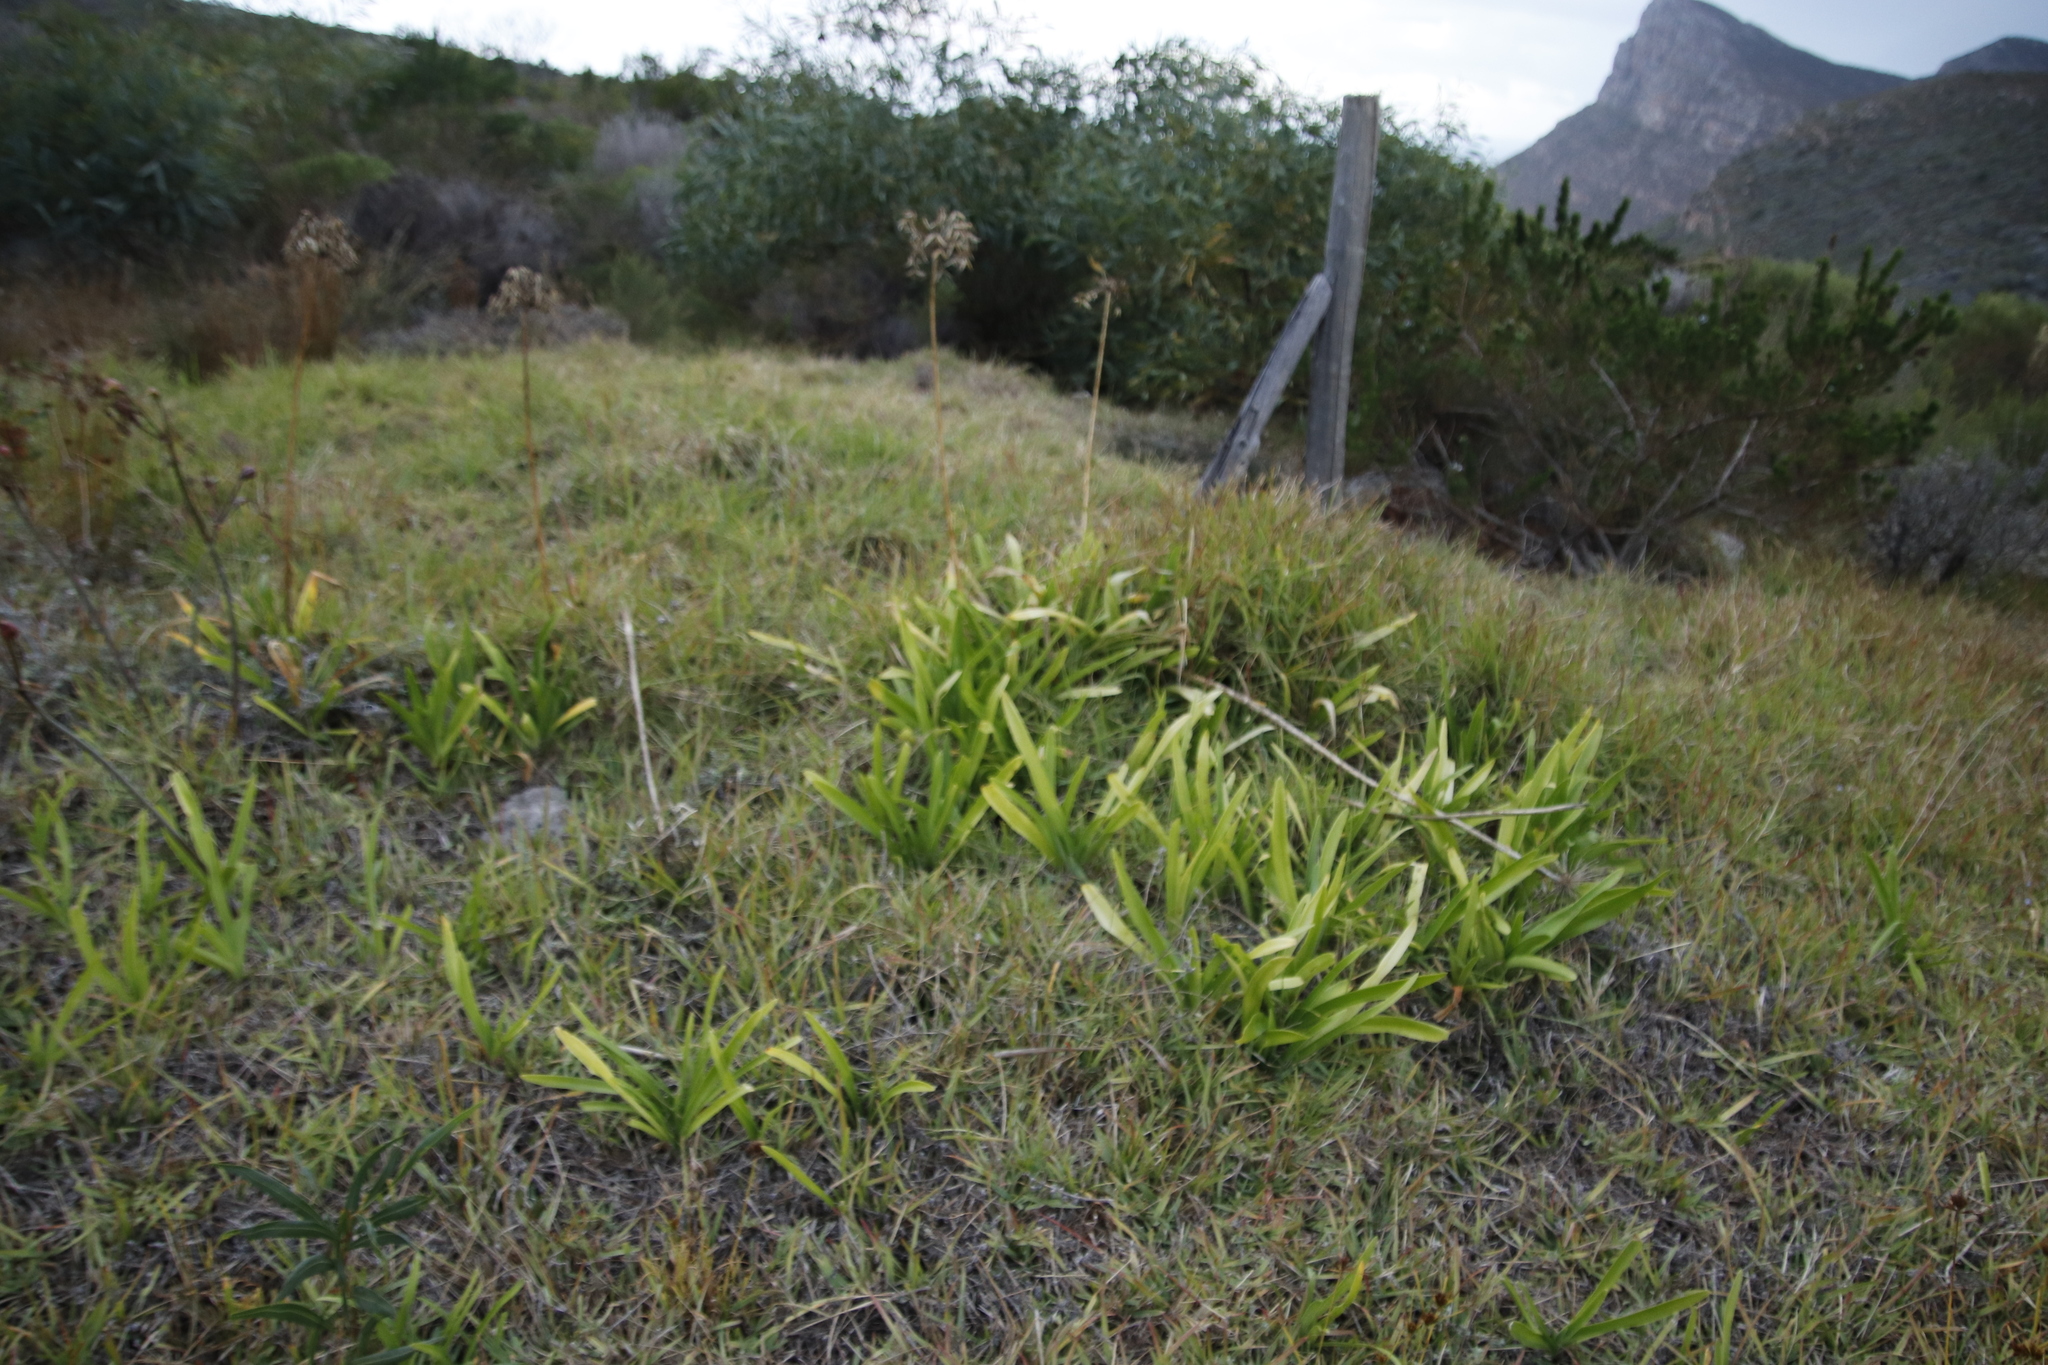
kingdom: Plantae
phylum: Tracheophyta
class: Liliopsida
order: Asparagales
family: Amaryllidaceae
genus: Agapanthus
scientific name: Agapanthus praecox
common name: African-lily
